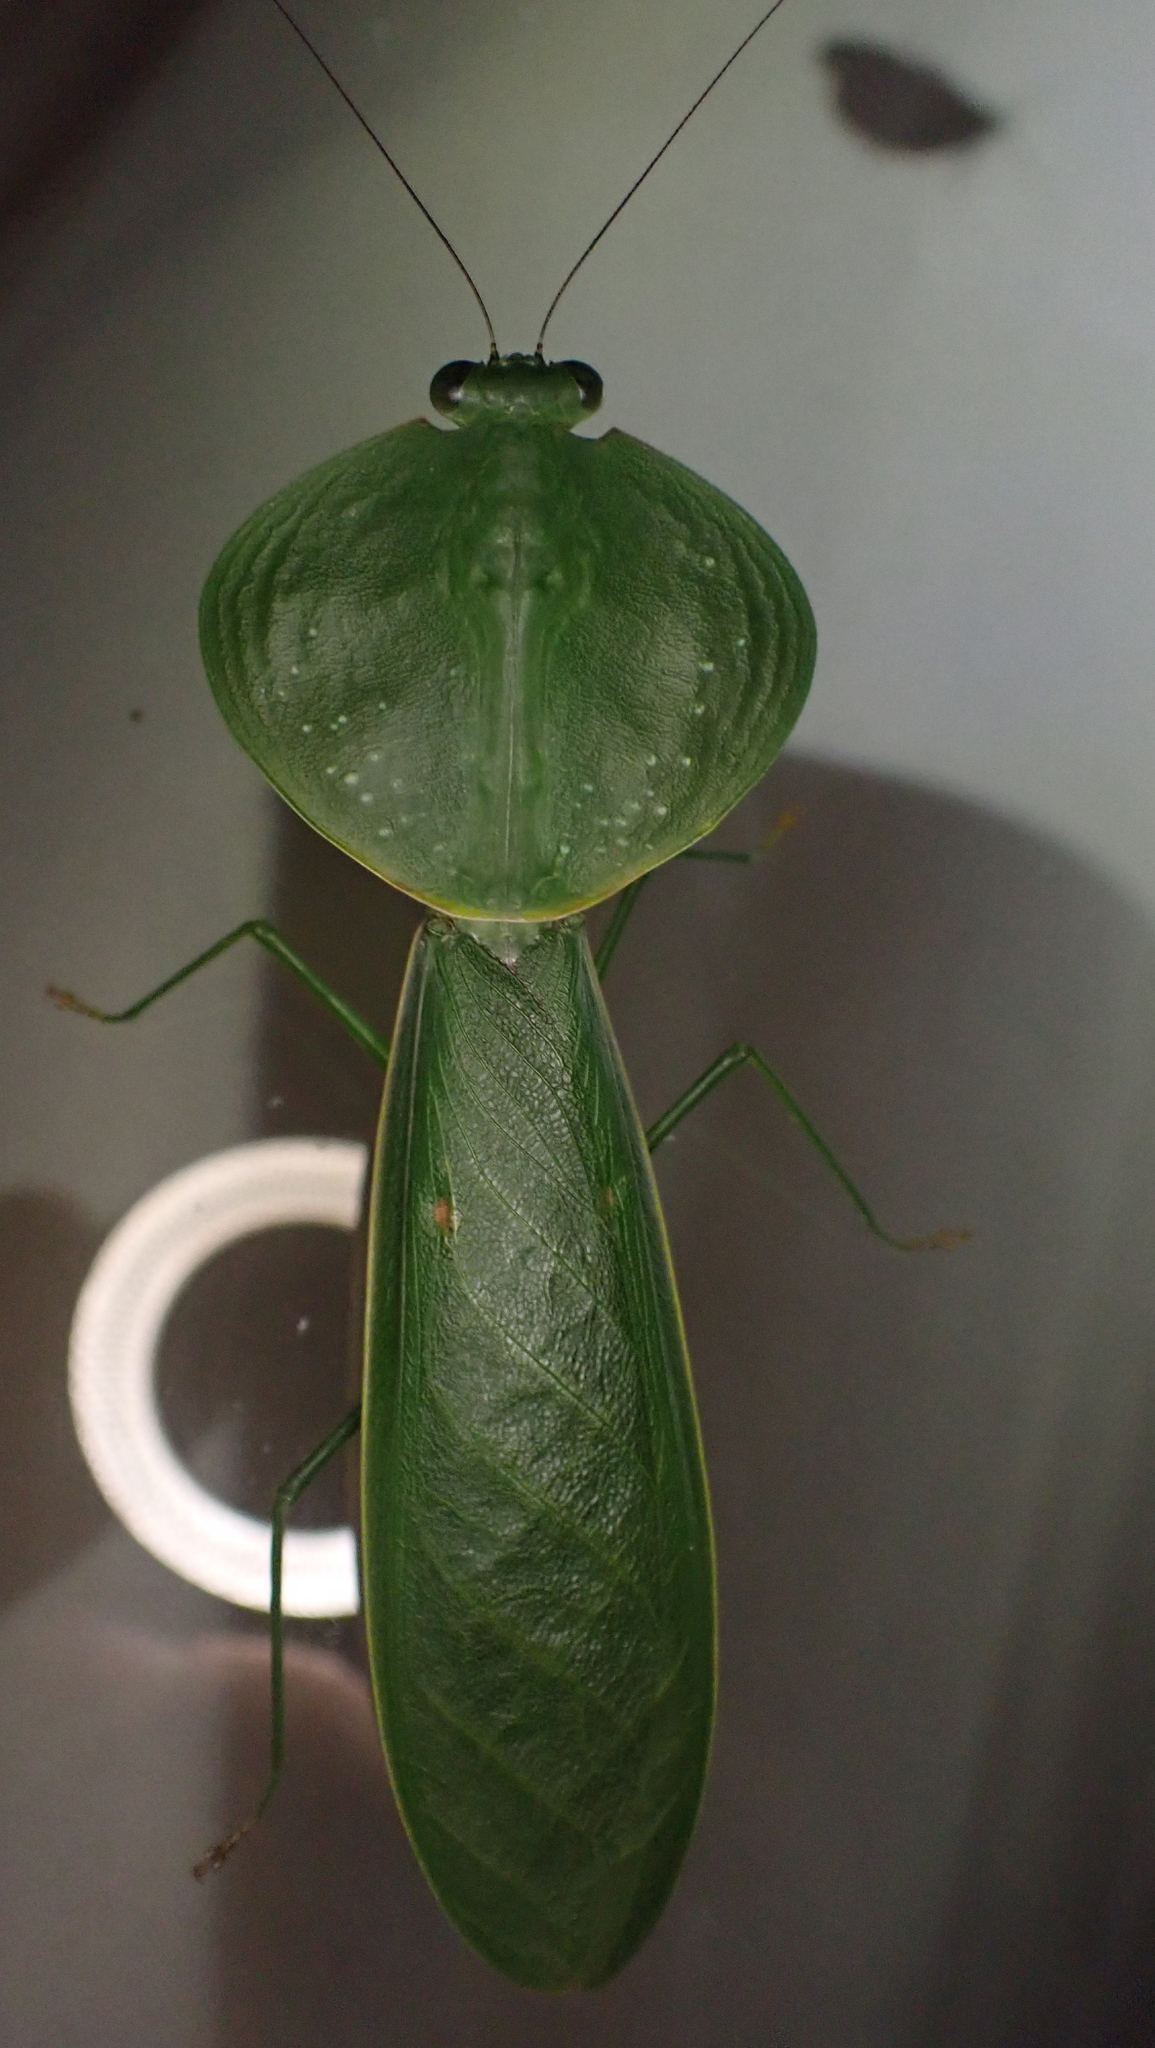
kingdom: Animalia
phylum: Arthropoda
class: Insecta
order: Mantodea
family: Mantidae
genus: Choeradodis
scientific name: Choeradodis rhombicollis
